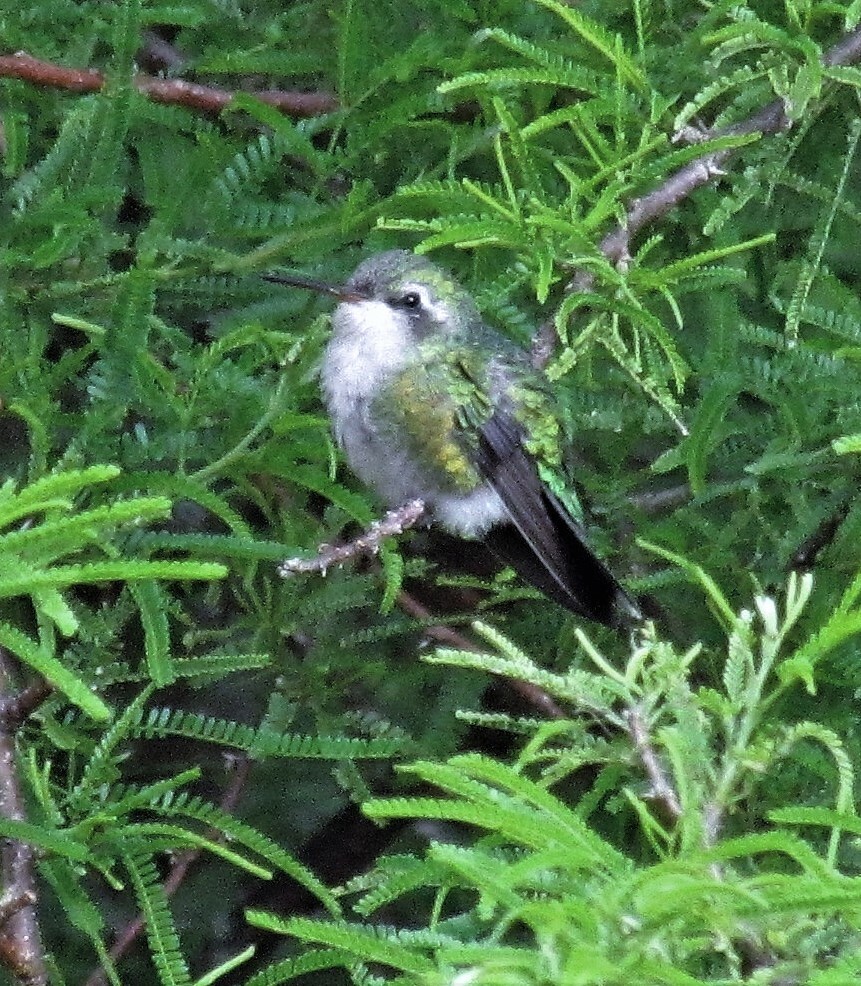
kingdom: Animalia
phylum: Chordata
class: Aves
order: Apodiformes
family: Trochilidae
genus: Chlorostilbon
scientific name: Chlorostilbon lucidus
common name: Glittering-bellied emerald
